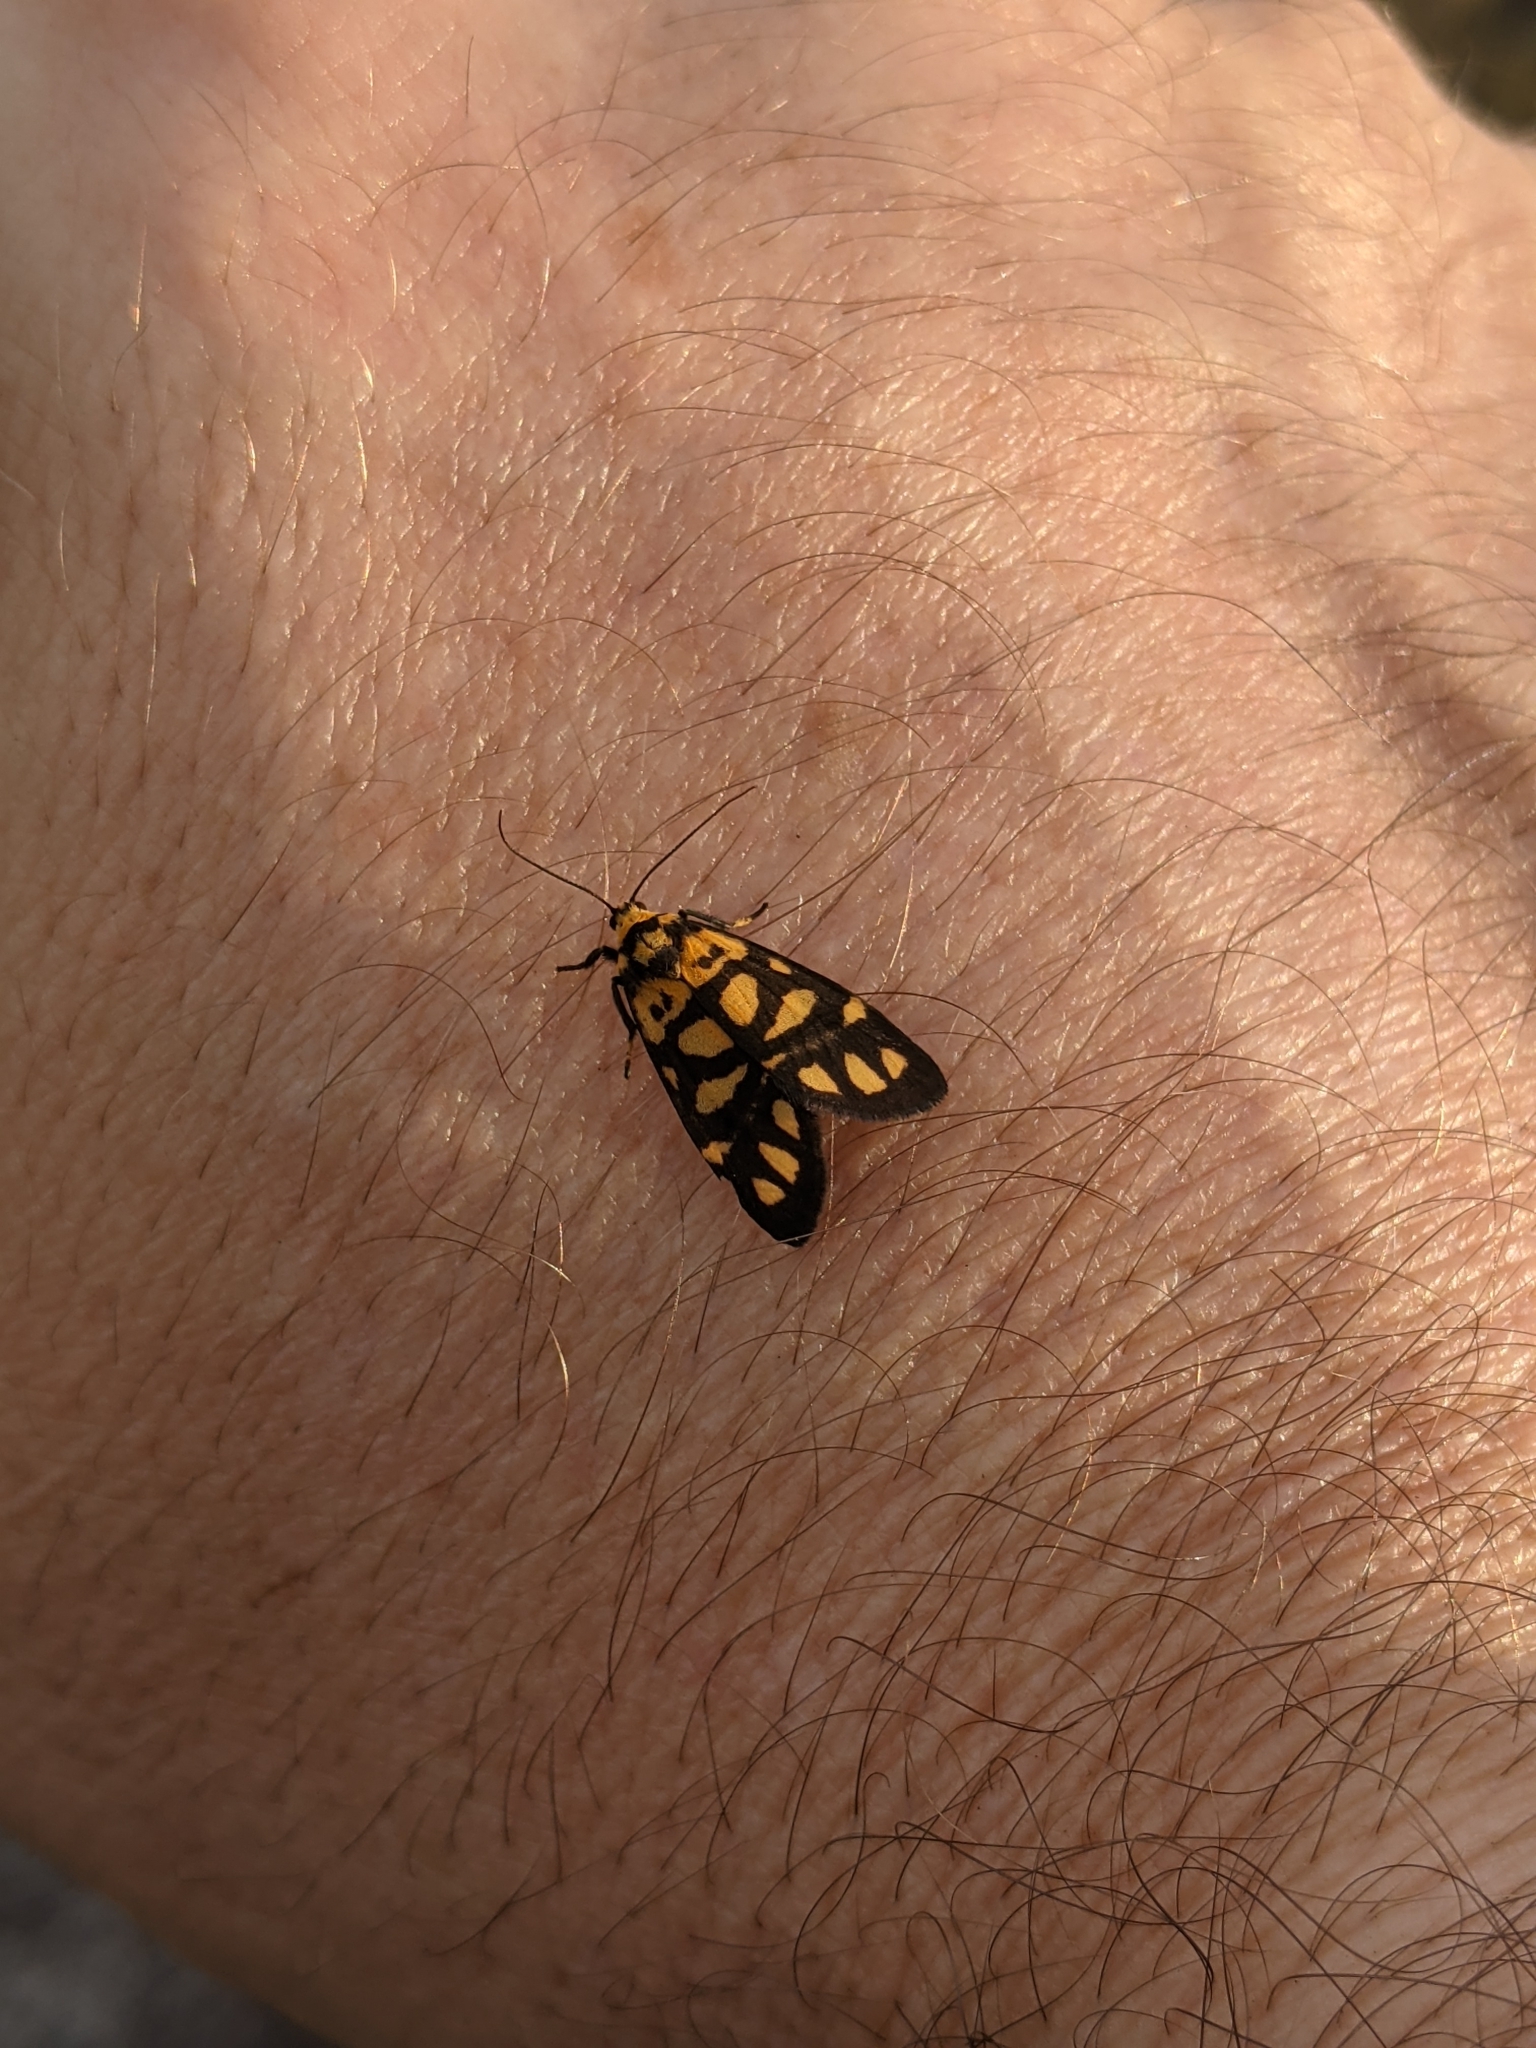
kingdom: Animalia
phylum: Arthropoda
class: Insecta
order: Lepidoptera
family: Erebidae
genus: Asura
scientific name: Asura lydia
